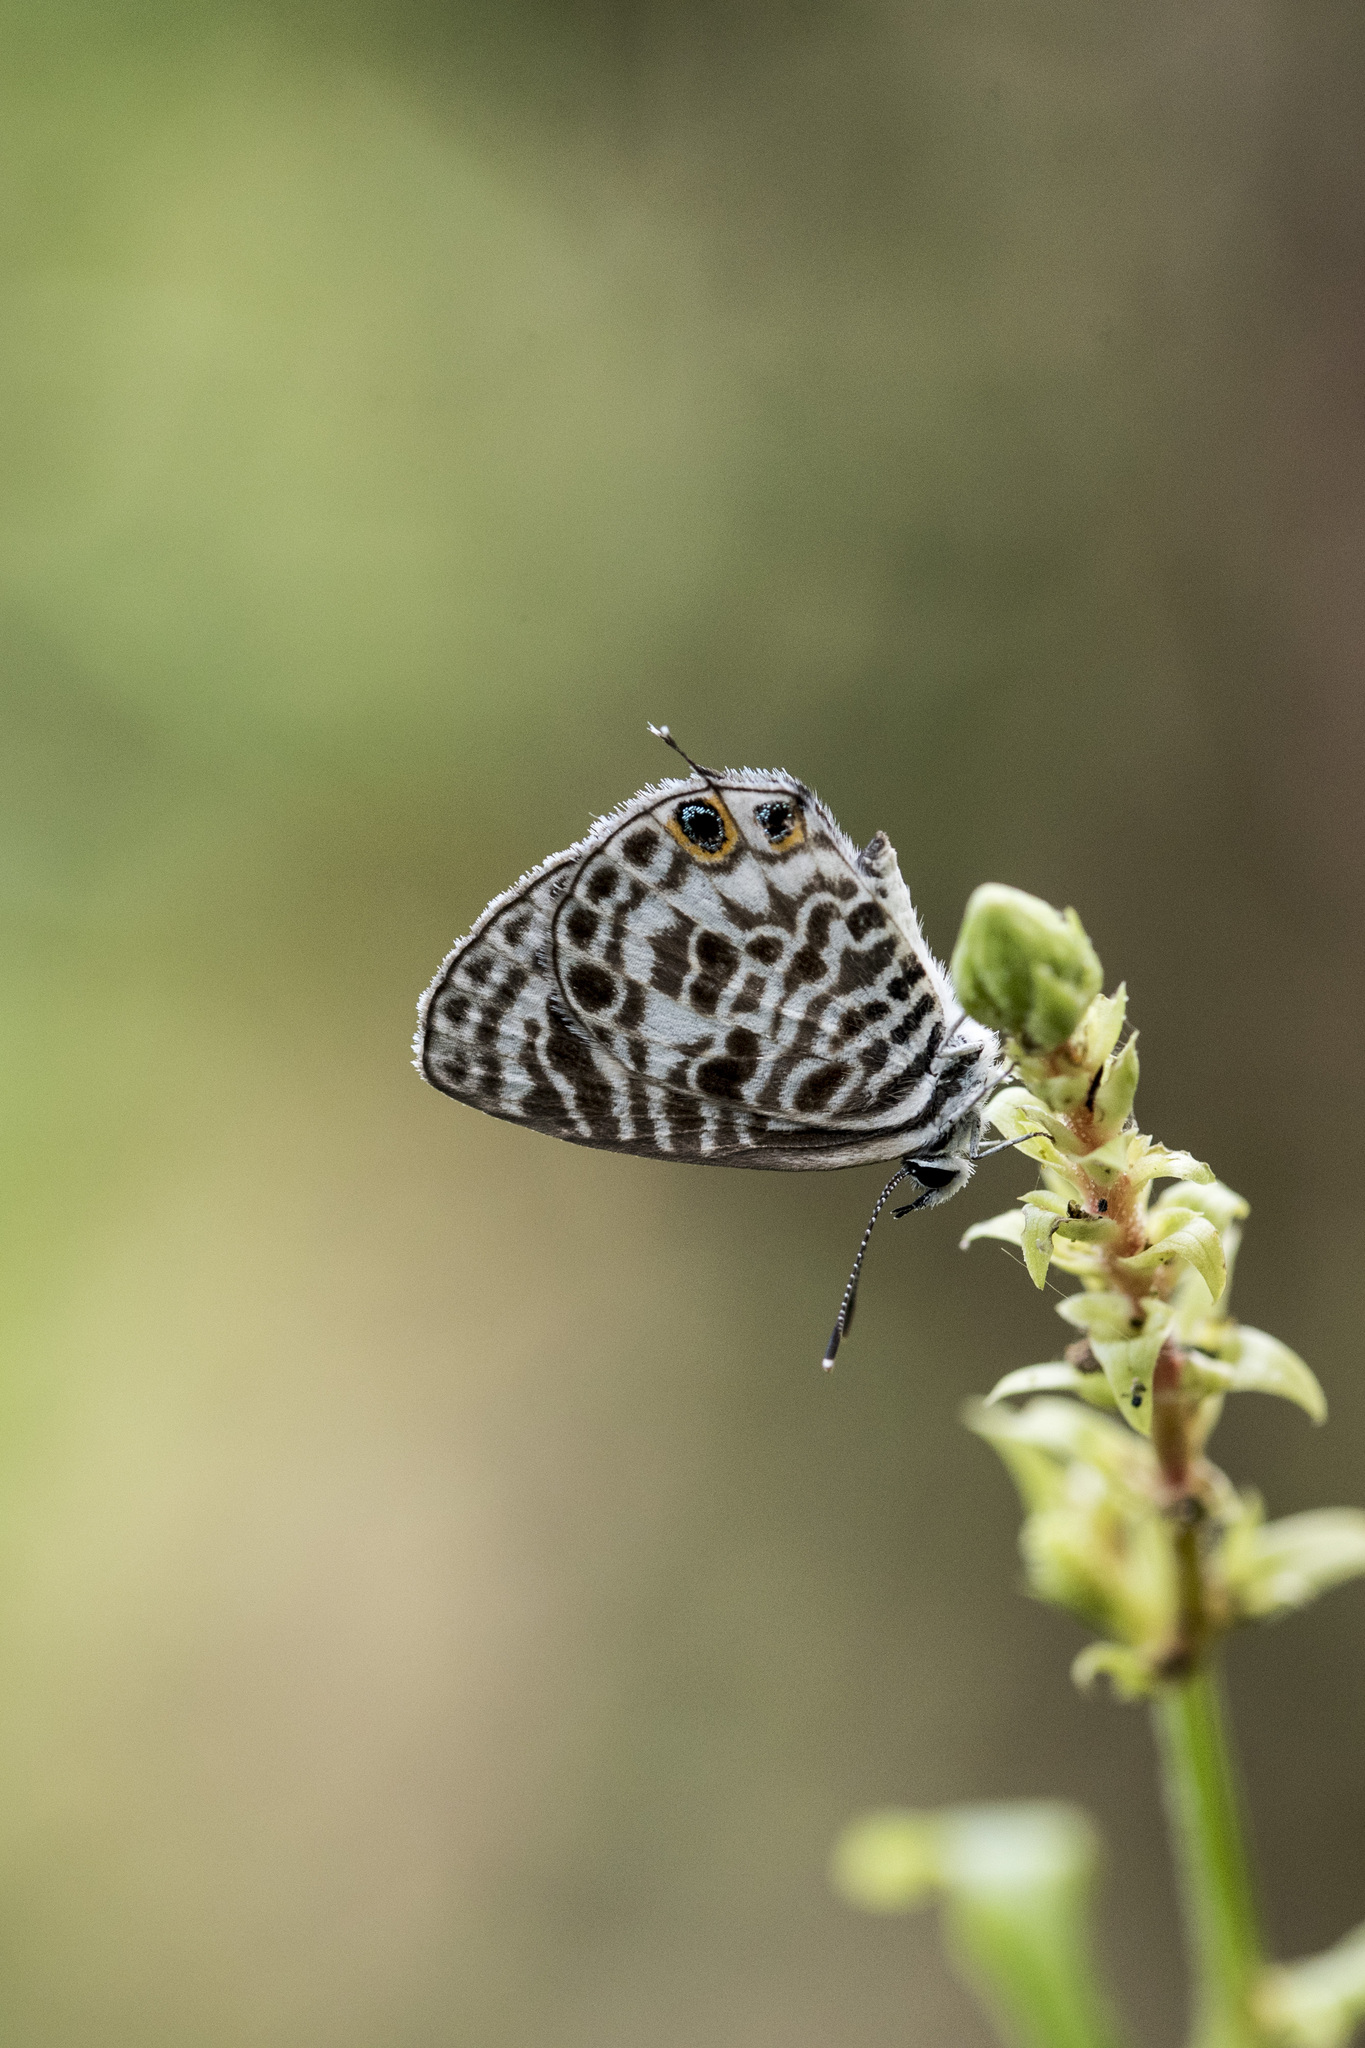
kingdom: Animalia
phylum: Arthropoda
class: Insecta
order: Lepidoptera
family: Lycaenidae
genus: Leptotes
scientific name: Leptotes plinius
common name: Zebra blue
